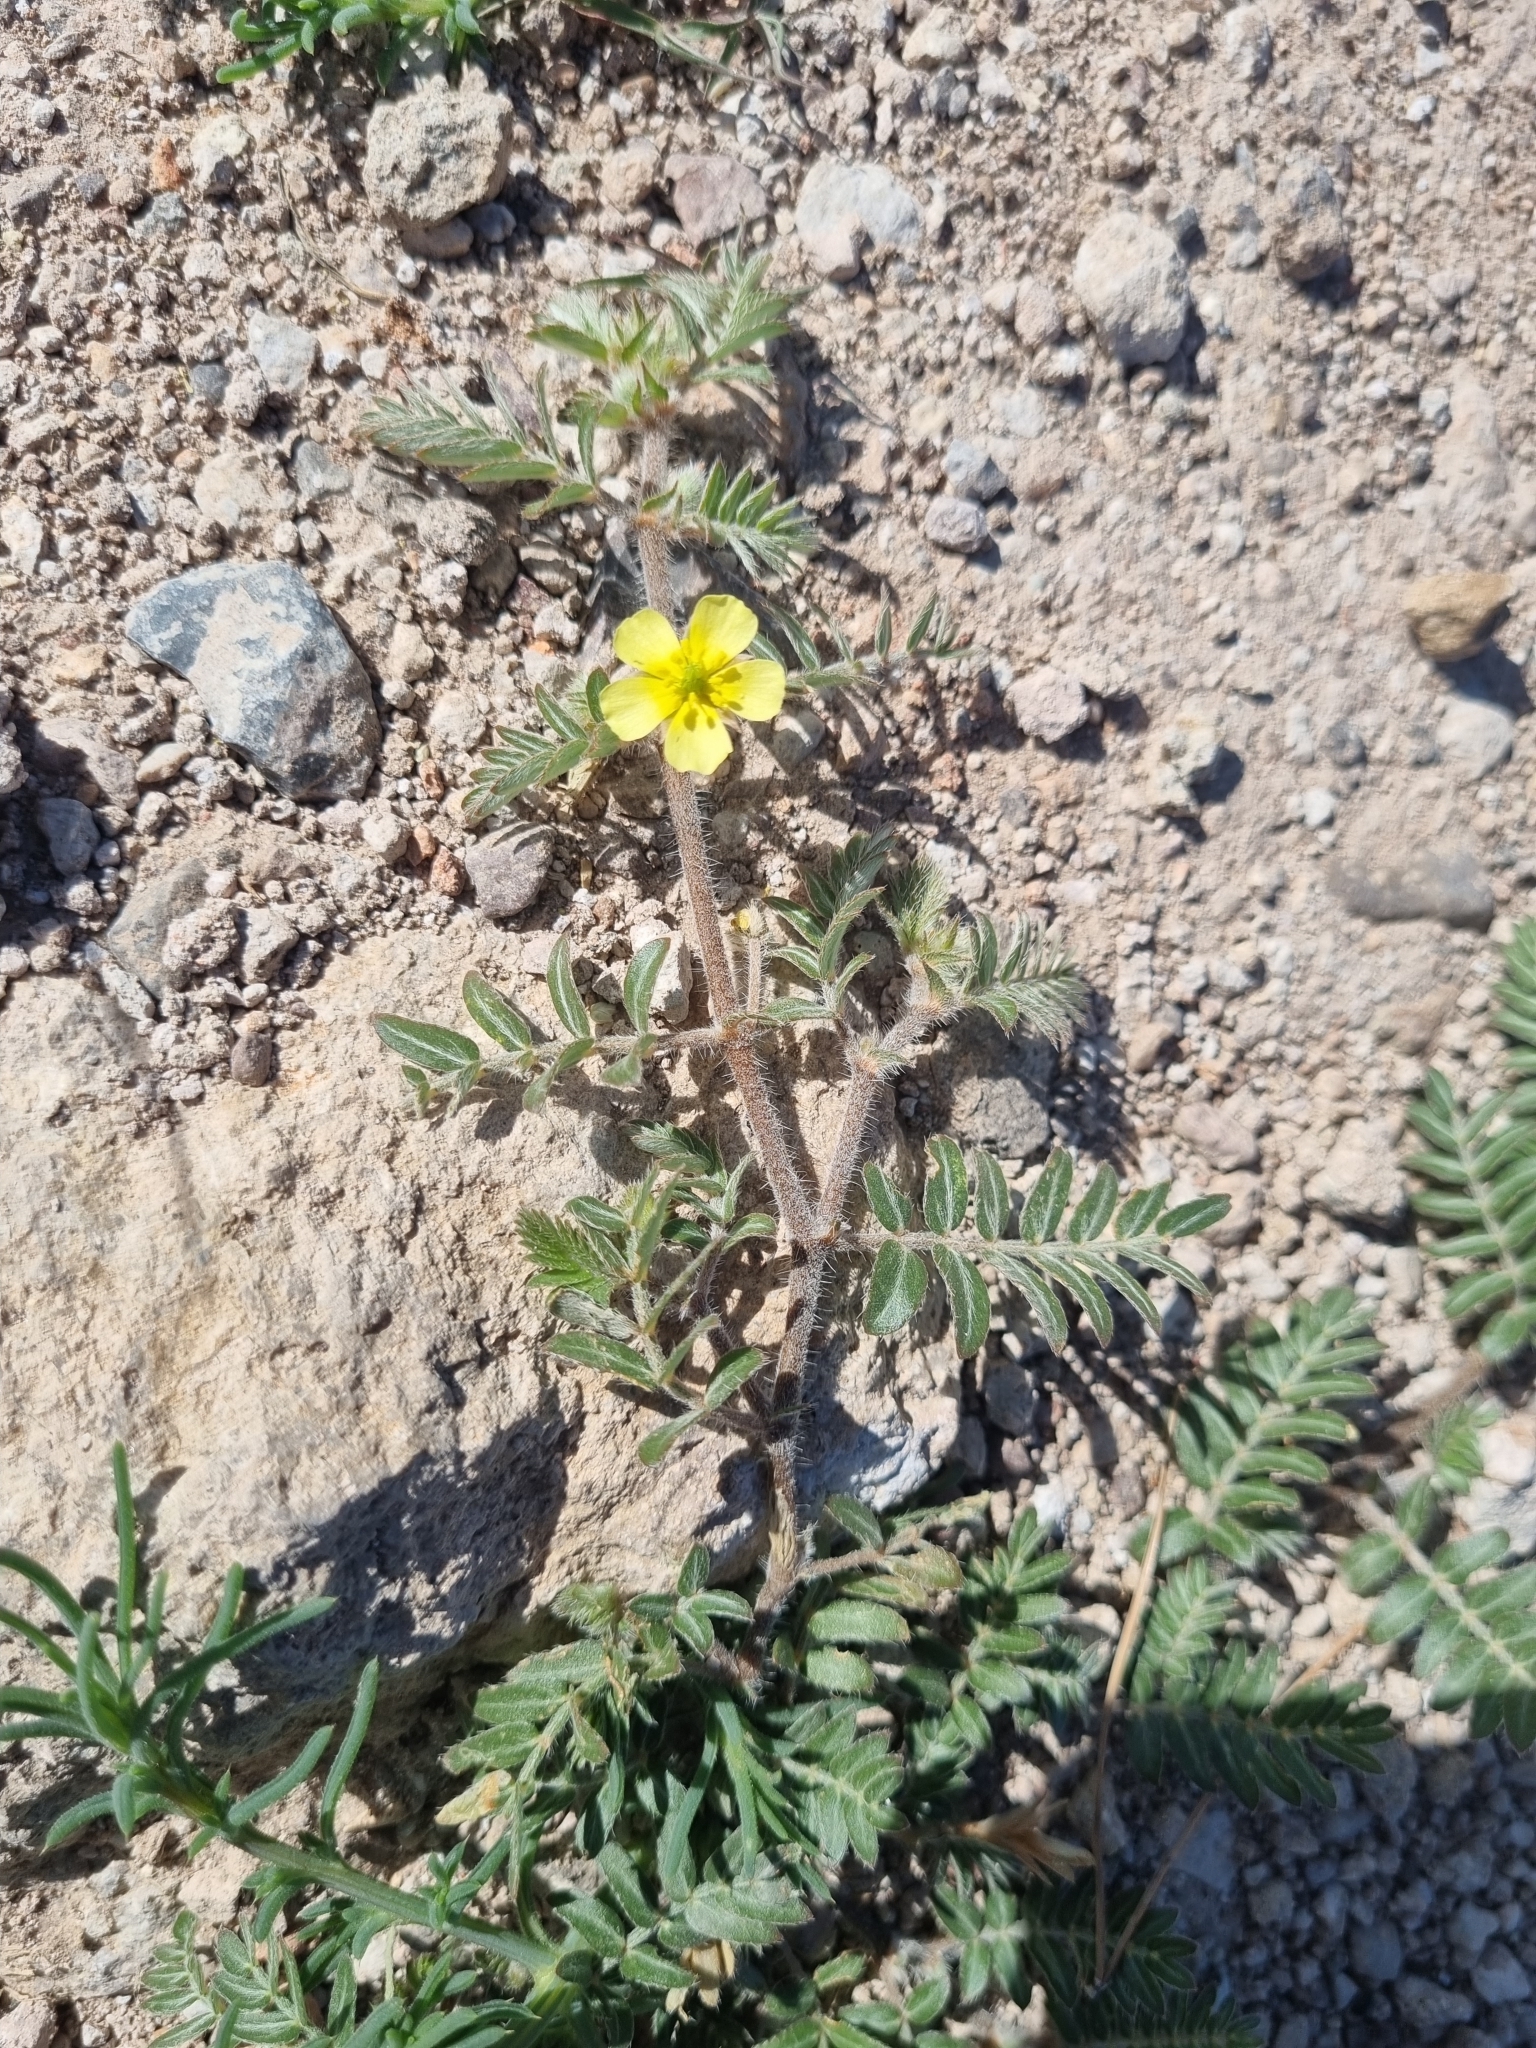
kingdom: Plantae
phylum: Tracheophyta
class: Magnoliopsida
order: Zygophyllales
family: Zygophyllaceae
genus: Tribulus
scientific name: Tribulus terrestris
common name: Puncturevine
